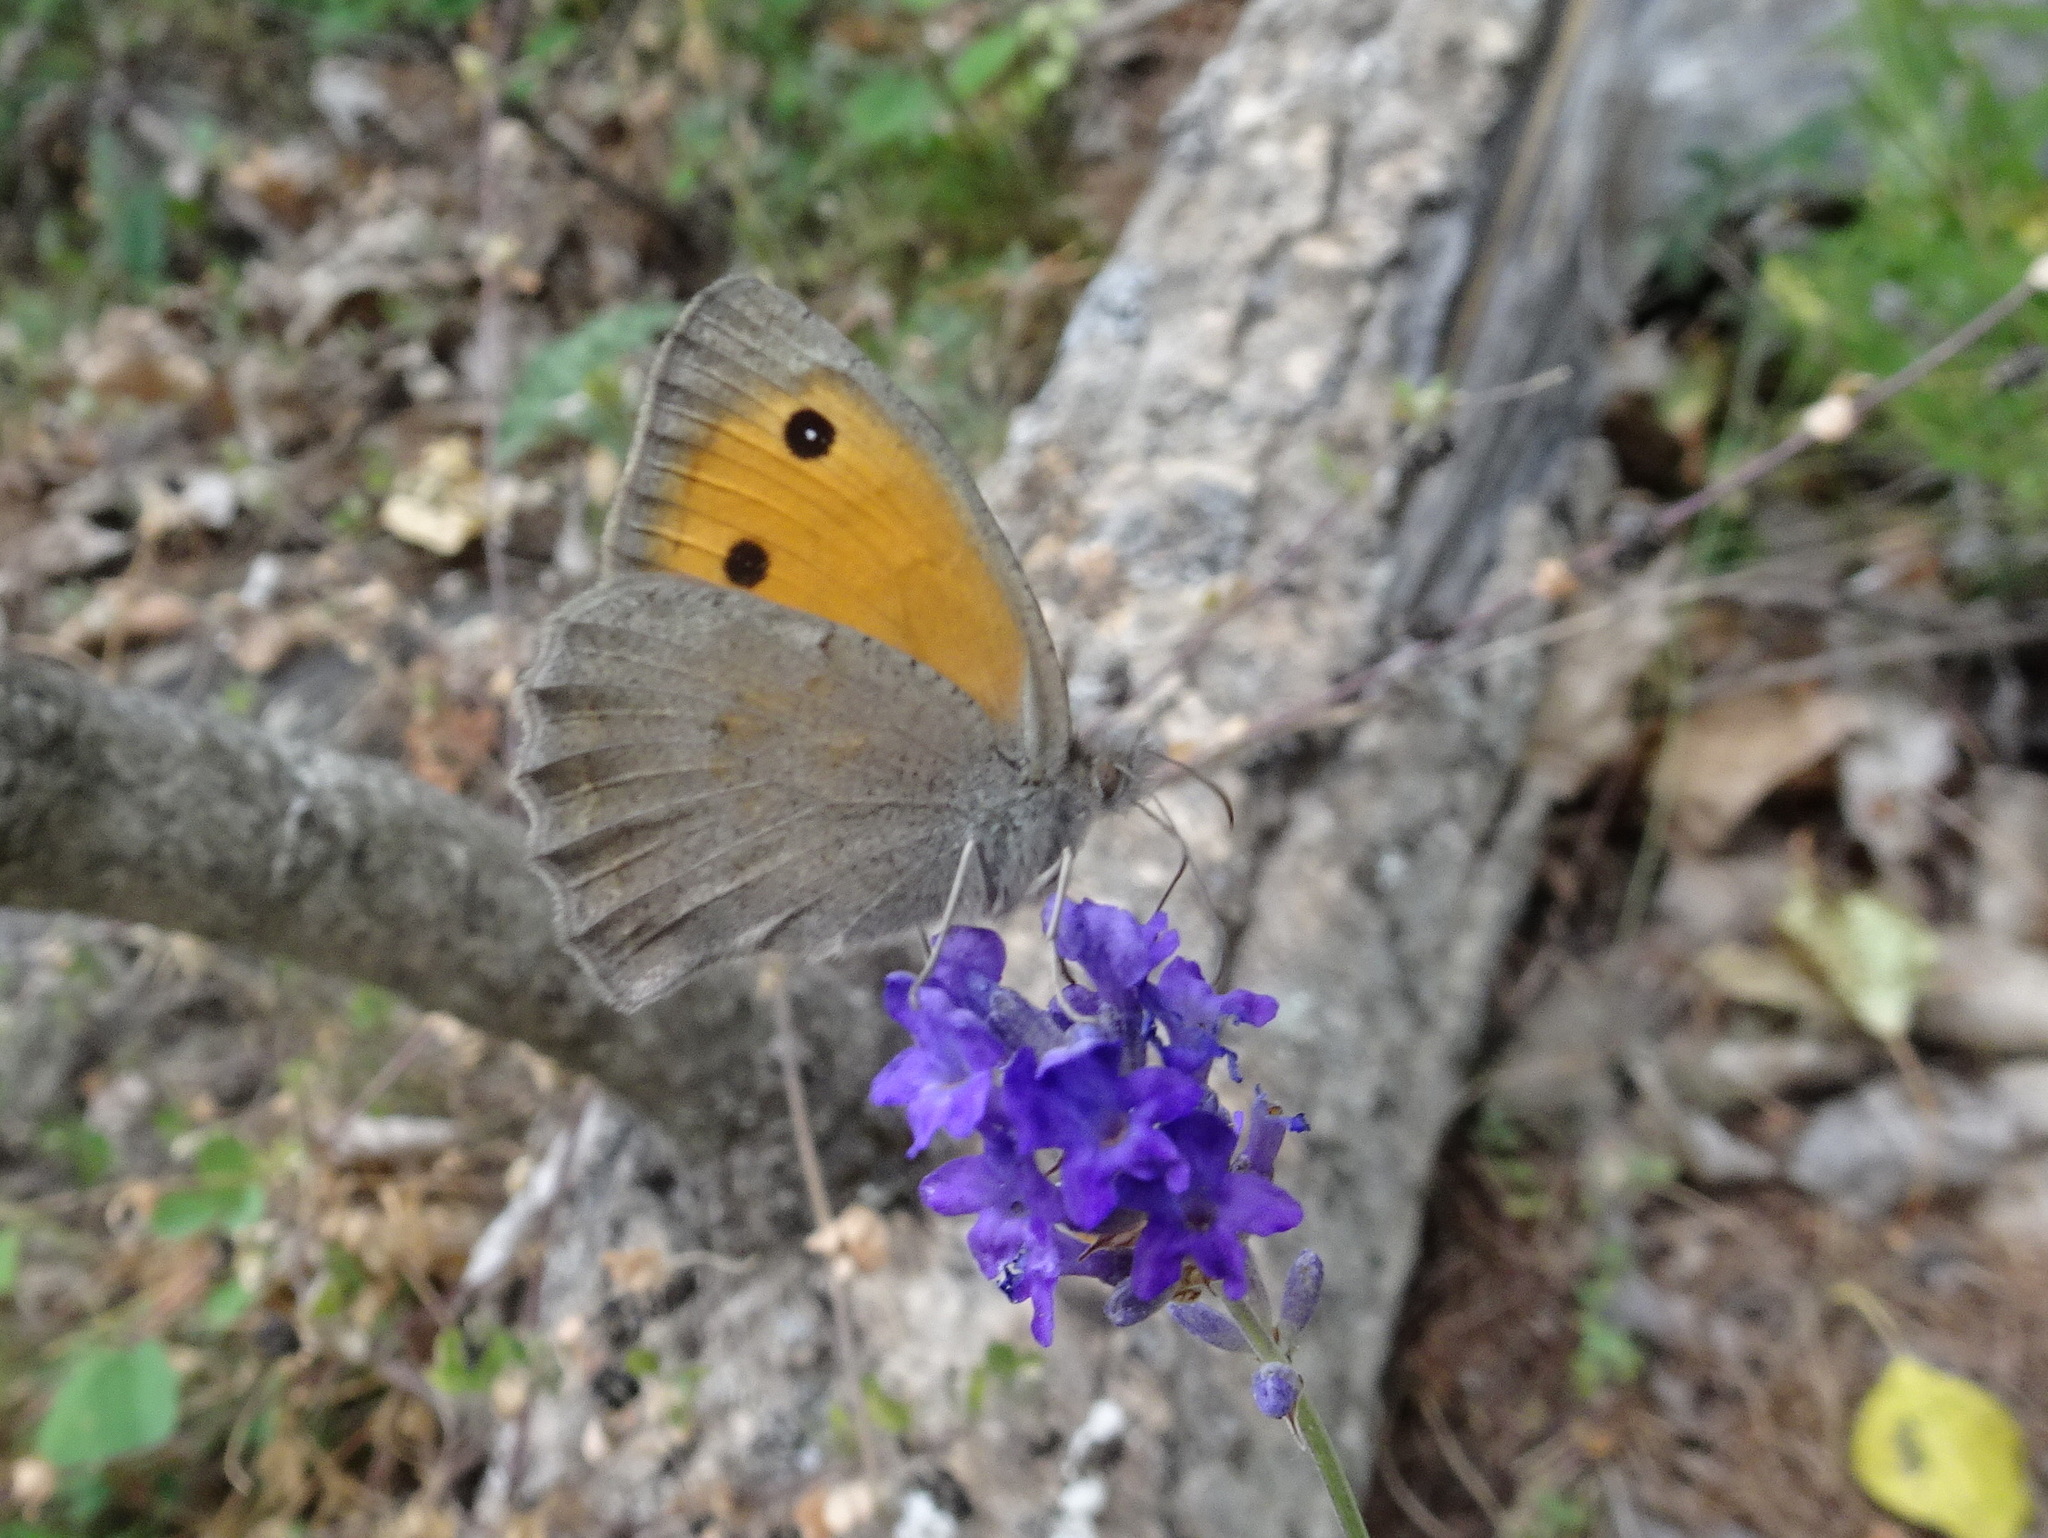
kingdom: Animalia
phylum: Arthropoda
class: Insecta
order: Lepidoptera
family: Nymphalidae
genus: Hyponephele
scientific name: Hyponephele lycaon
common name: Dusky meadow brown
